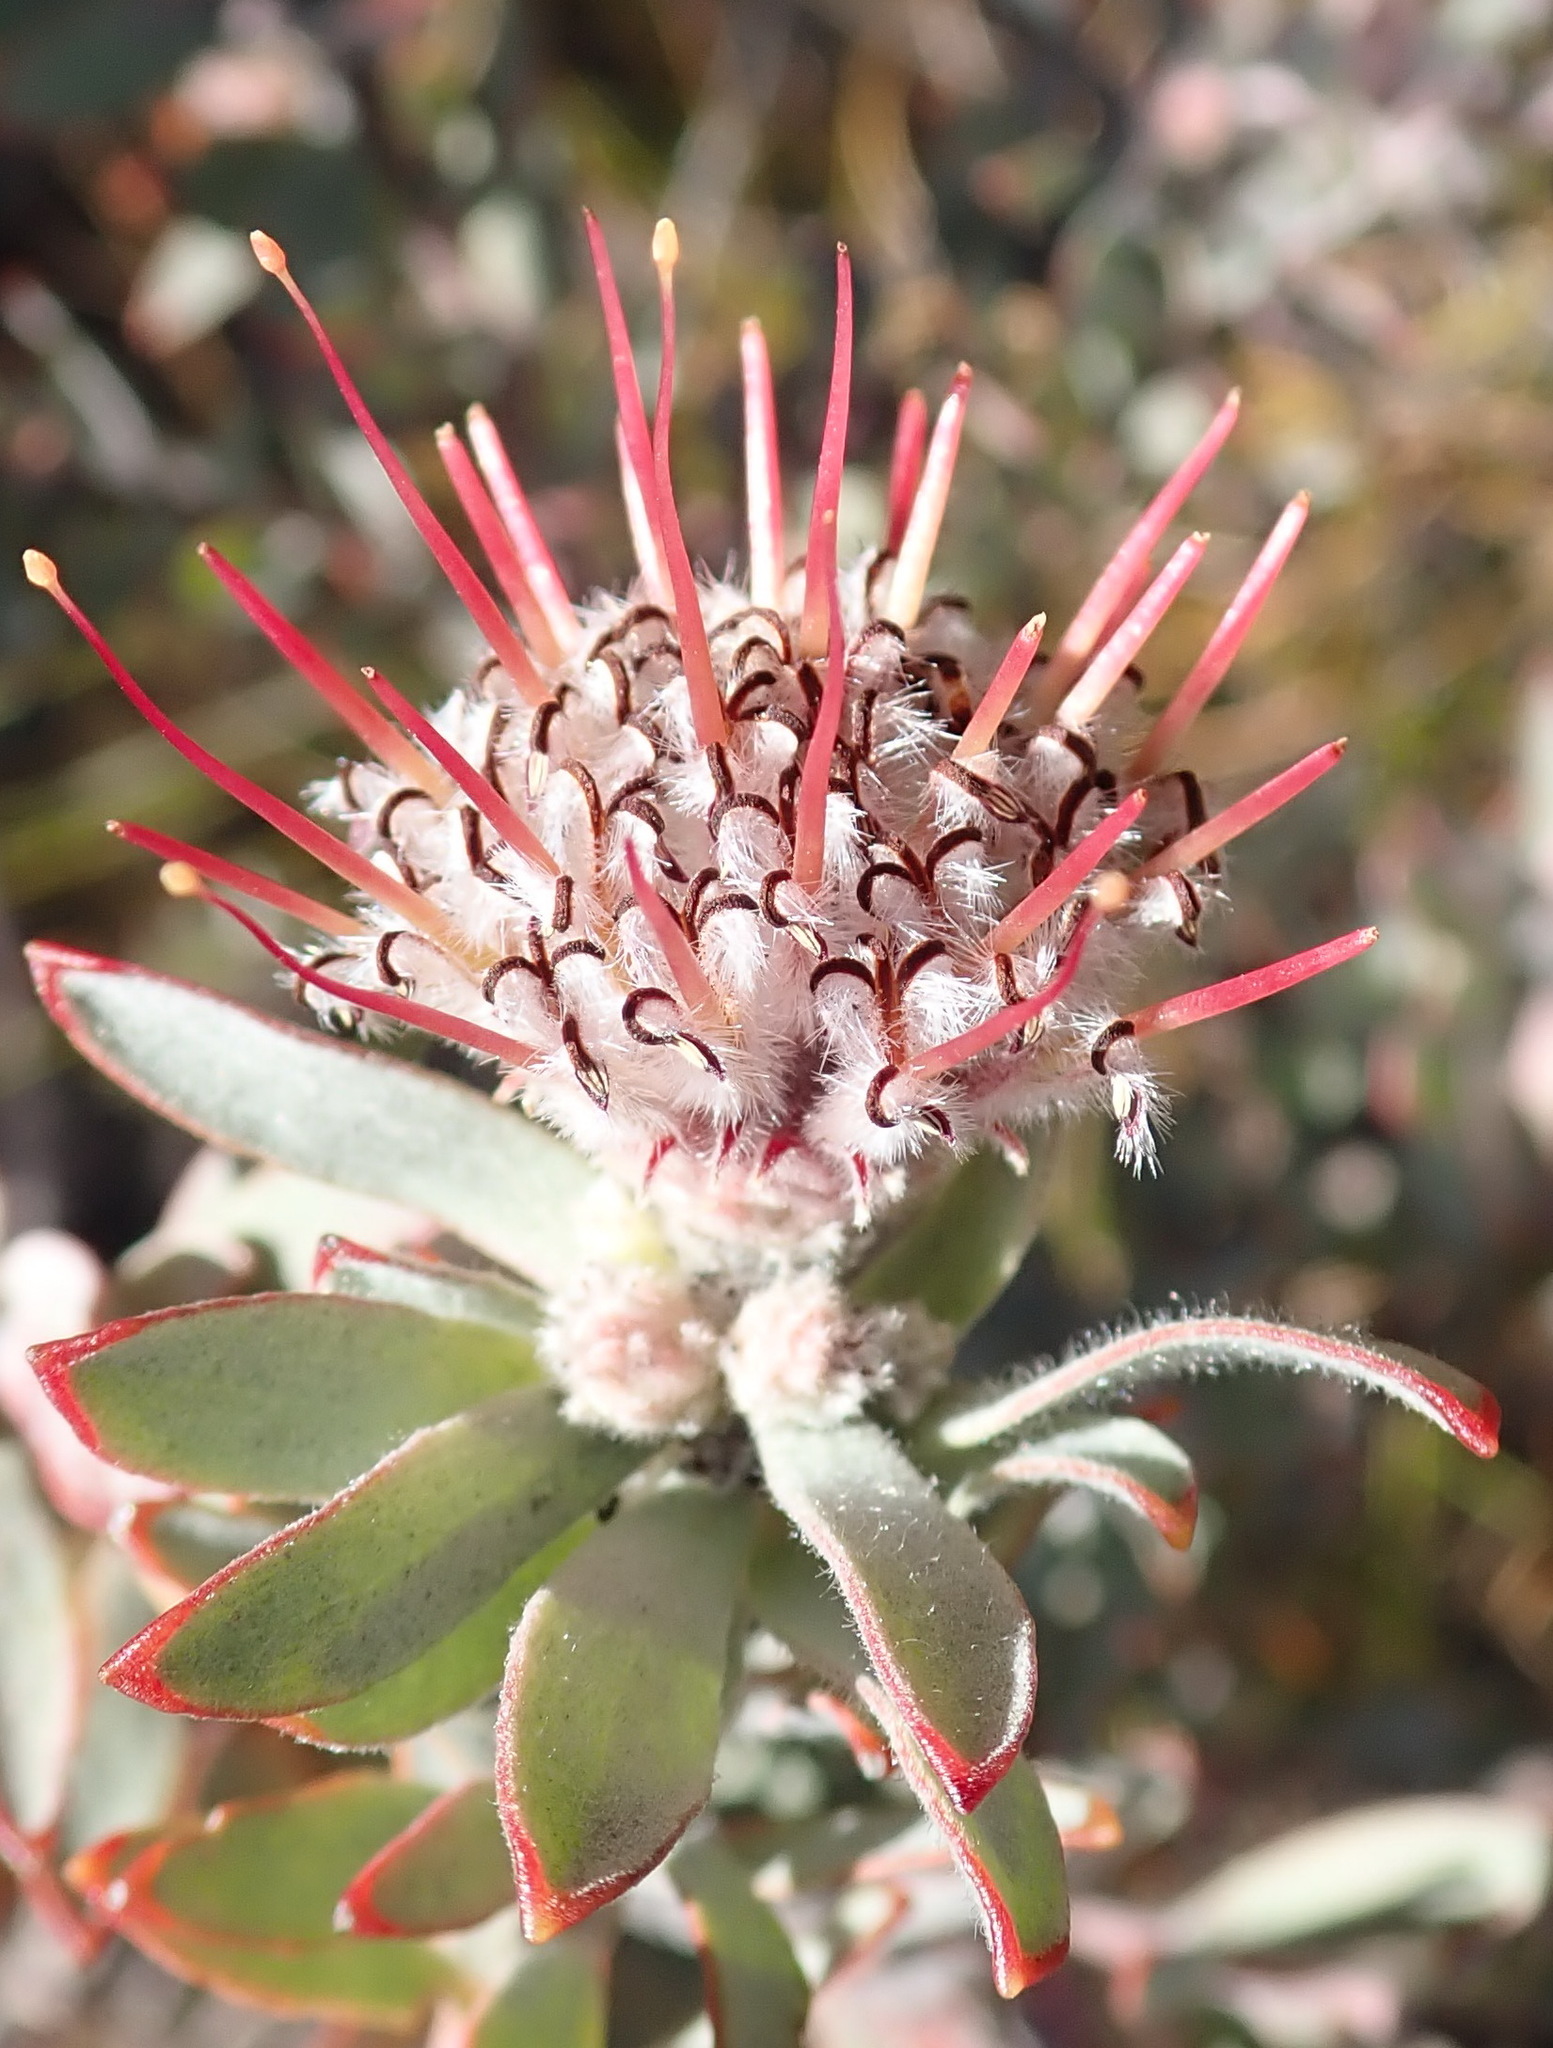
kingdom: Plantae
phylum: Tracheophyta
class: Magnoliopsida
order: Proteales
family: Proteaceae
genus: Leucospermum
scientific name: Leucospermum wittebergense
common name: Swartberg pincushion
